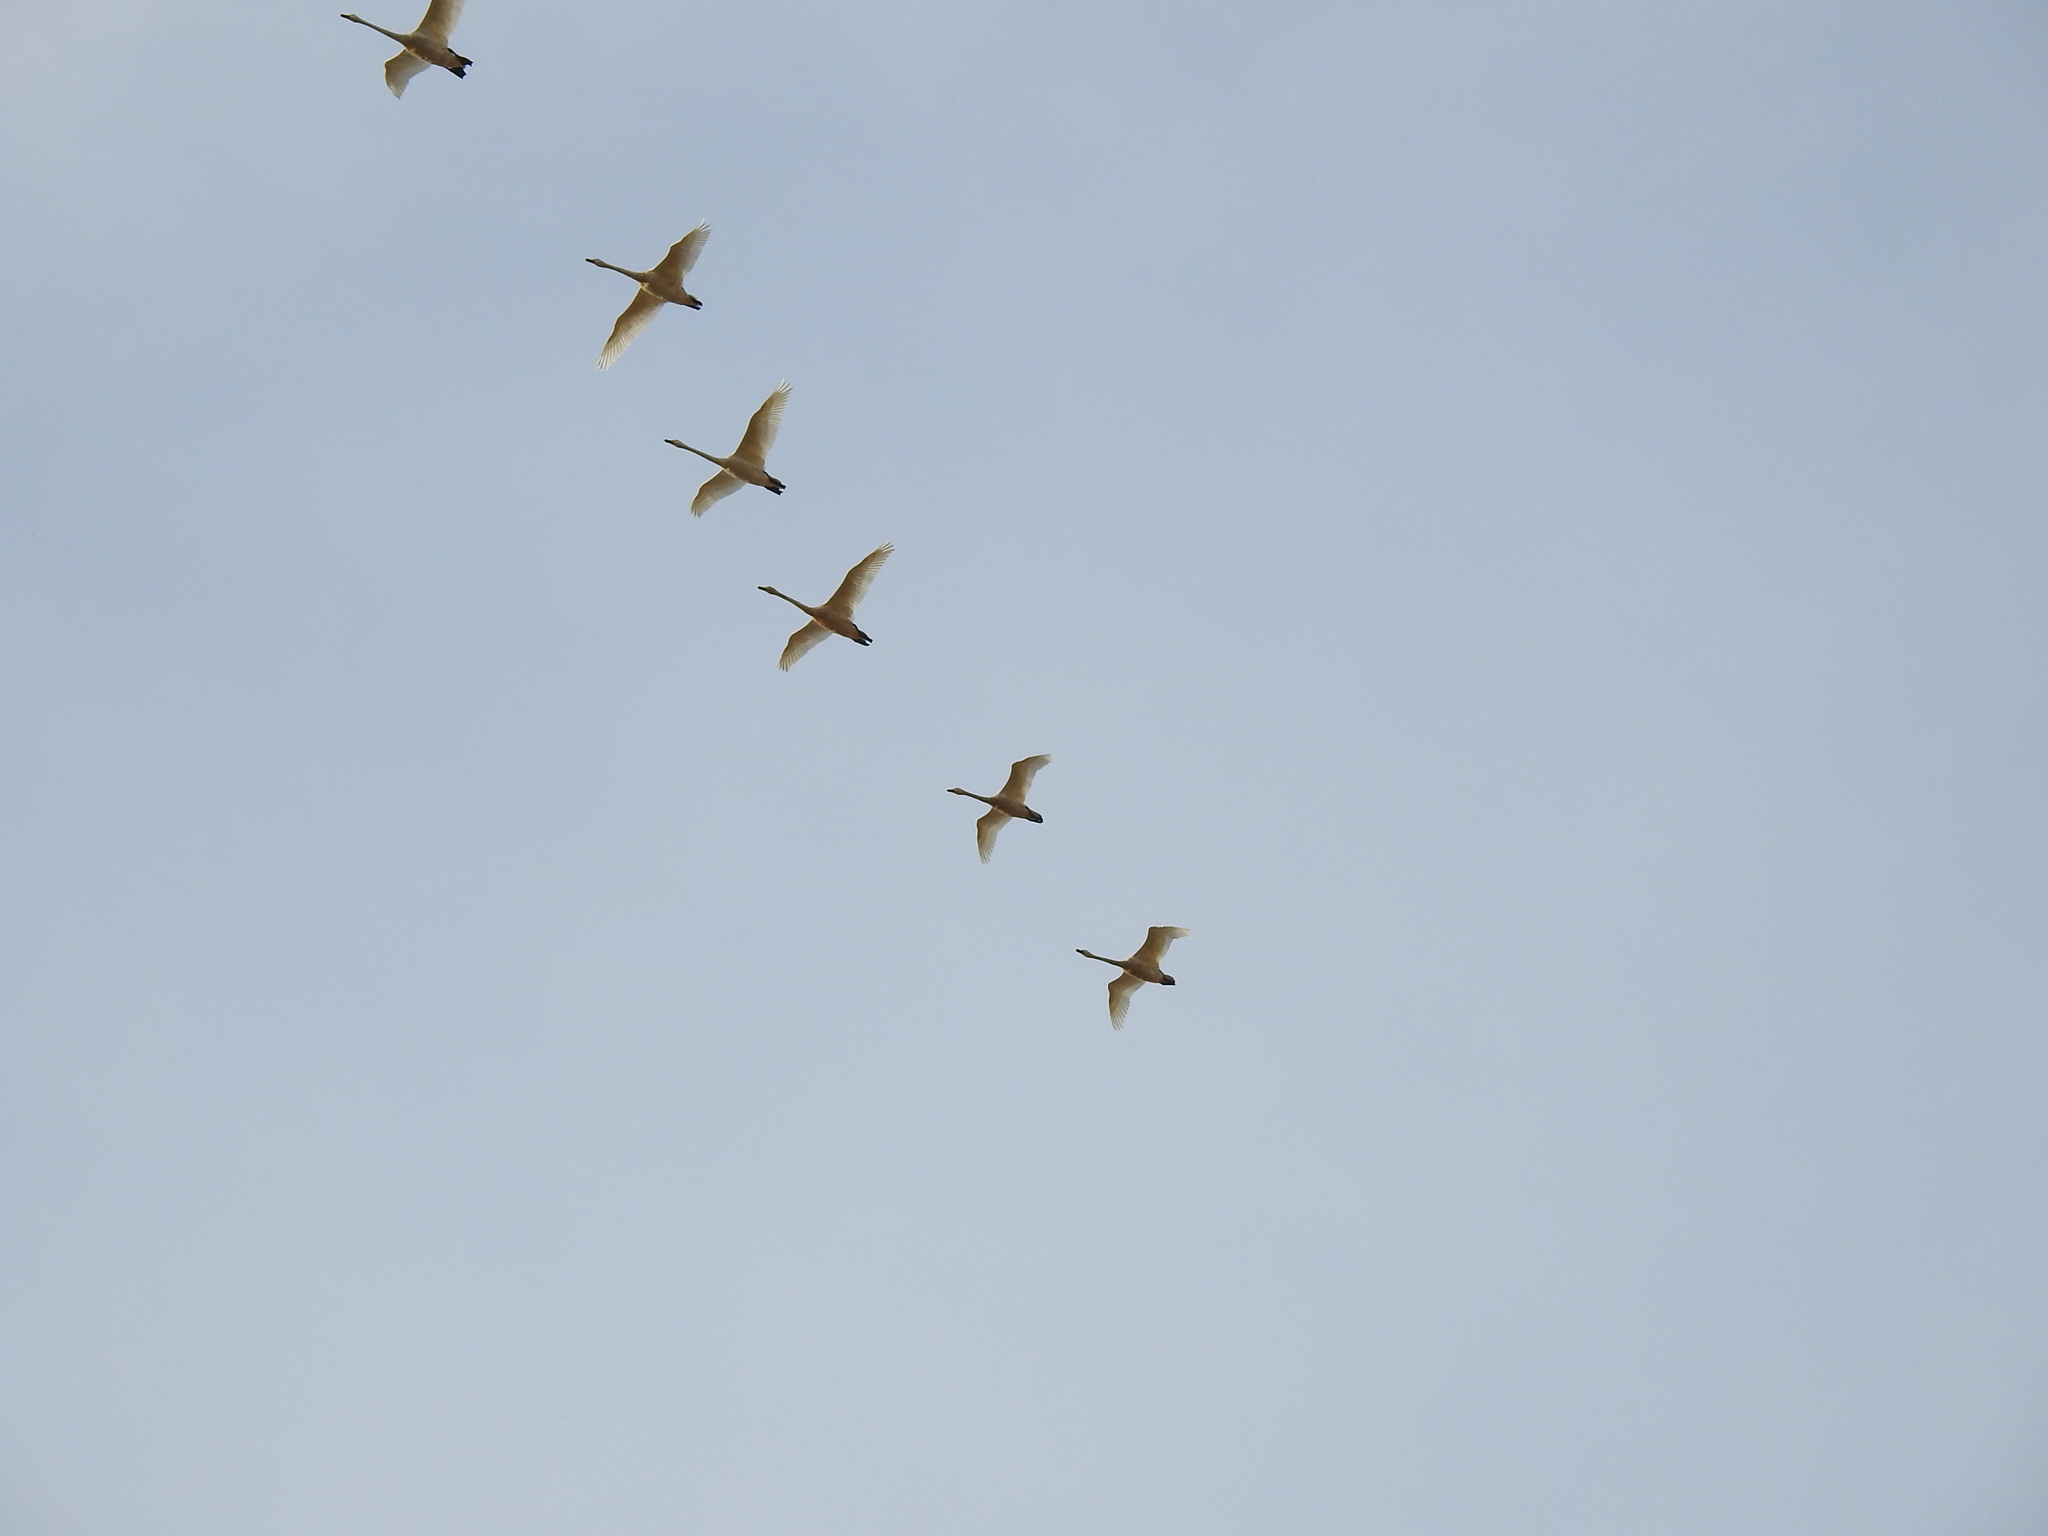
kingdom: Animalia
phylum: Chordata
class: Aves
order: Anseriformes
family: Anatidae
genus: Cygnus
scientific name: Cygnus cygnus
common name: Whooper swan
